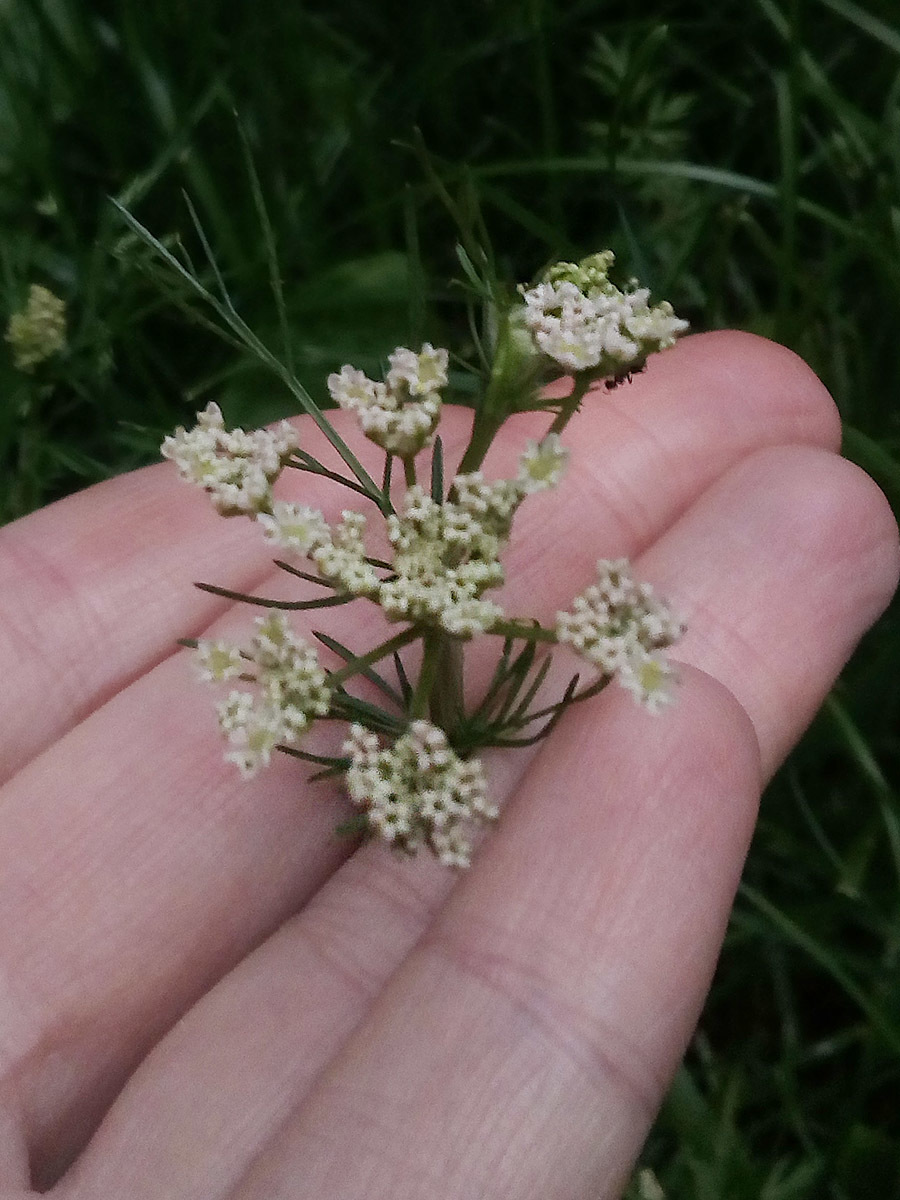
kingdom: Plantae
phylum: Tracheophyta
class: Magnoliopsida
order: Apiales
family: Apiaceae
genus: Carum
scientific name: Carum carvi
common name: Caraway
